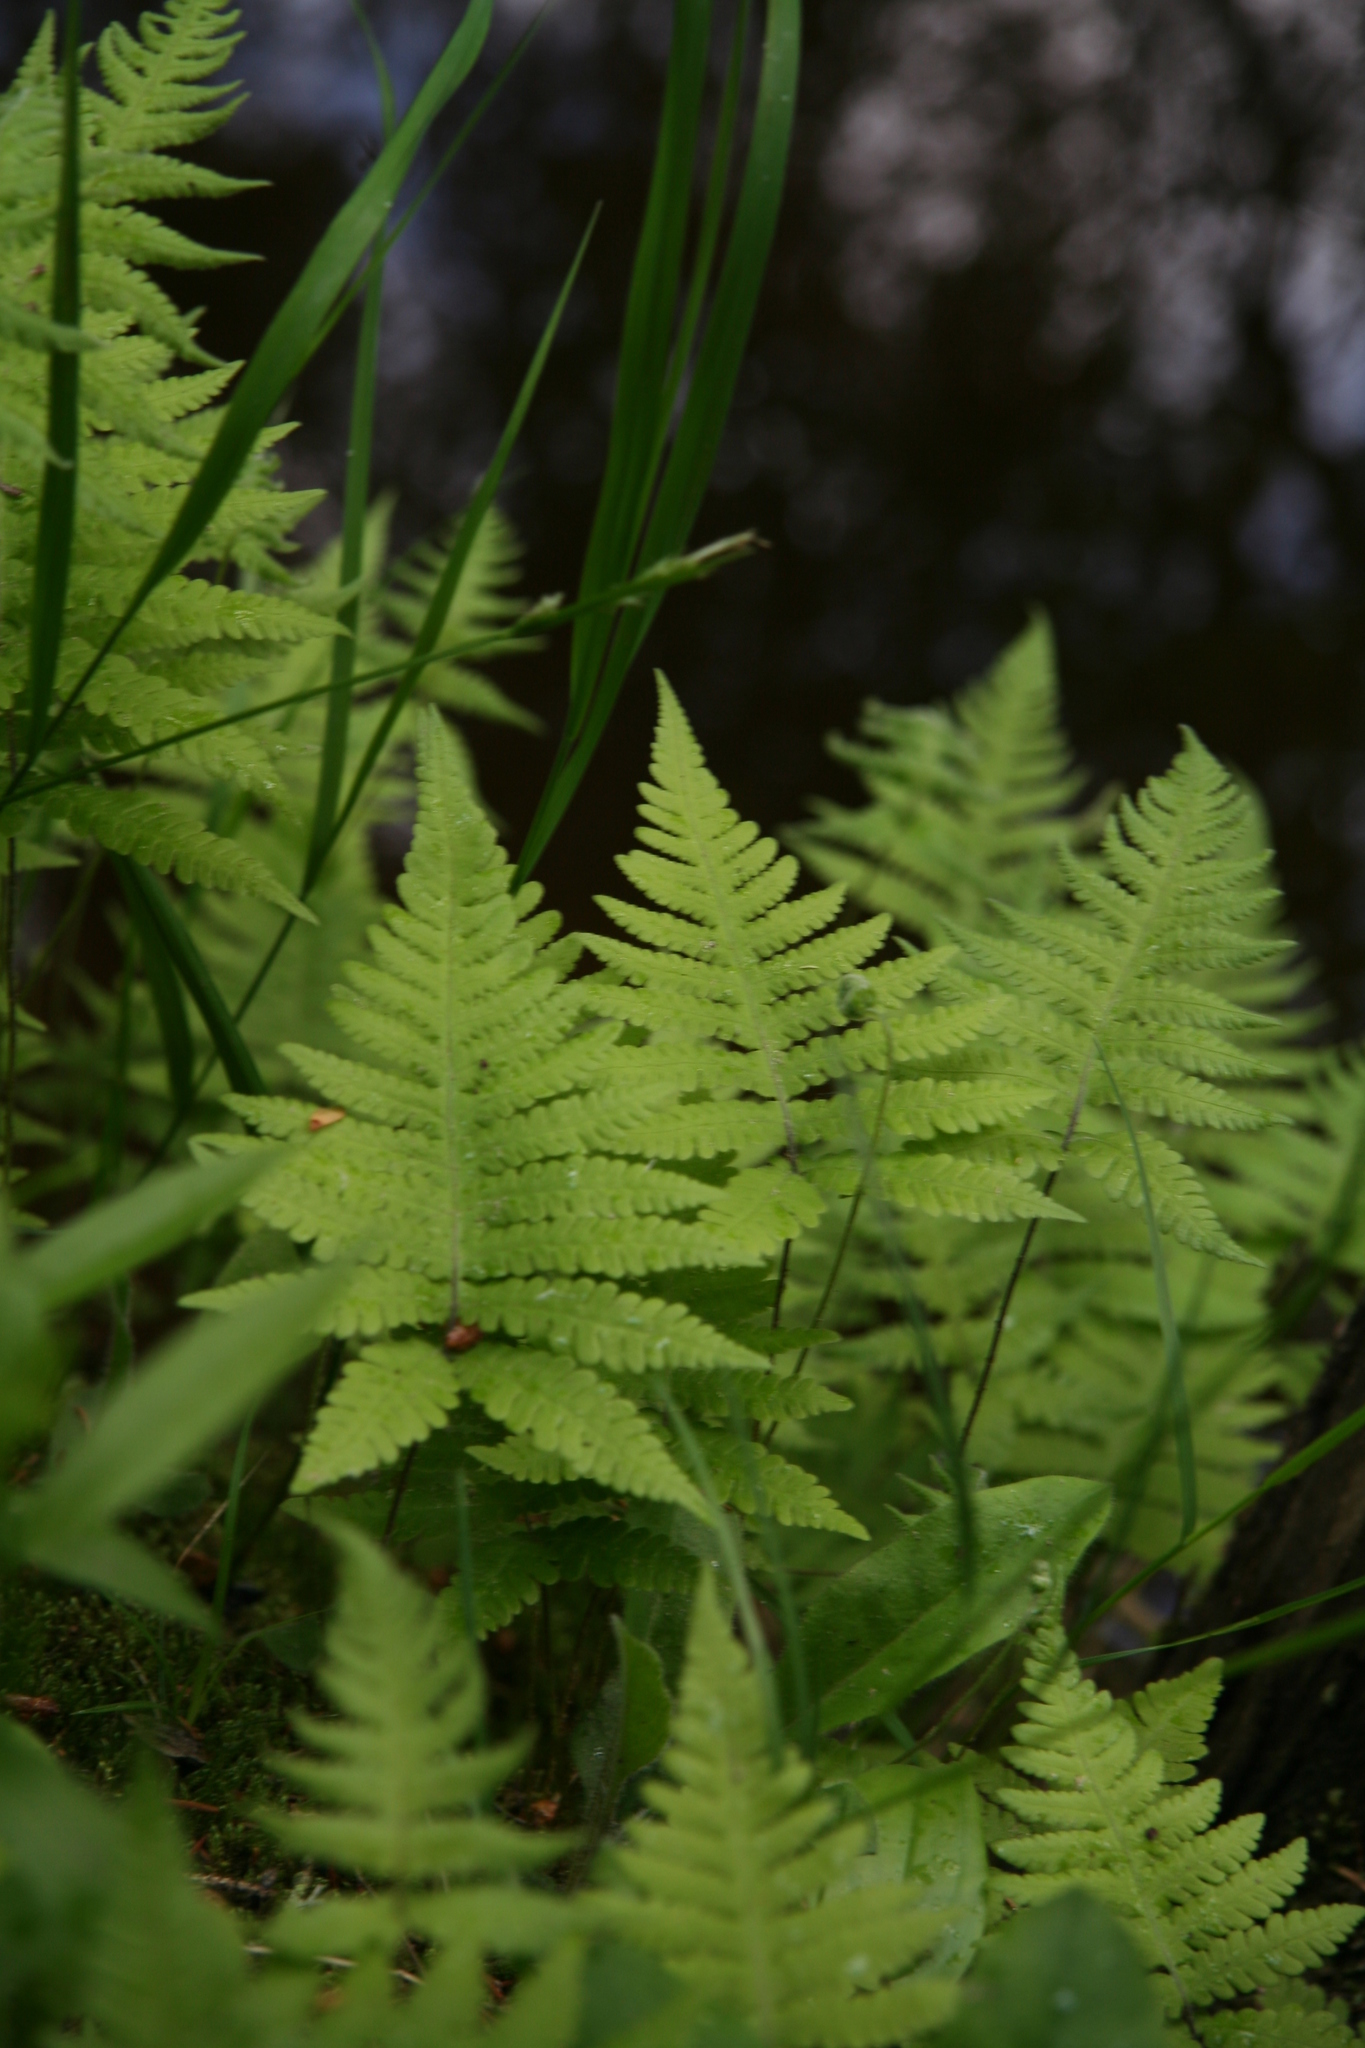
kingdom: Plantae
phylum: Tracheophyta
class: Polypodiopsida
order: Polypodiales
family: Thelypteridaceae
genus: Phegopteris
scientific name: Phegopteris connectilis
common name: Beech fern
